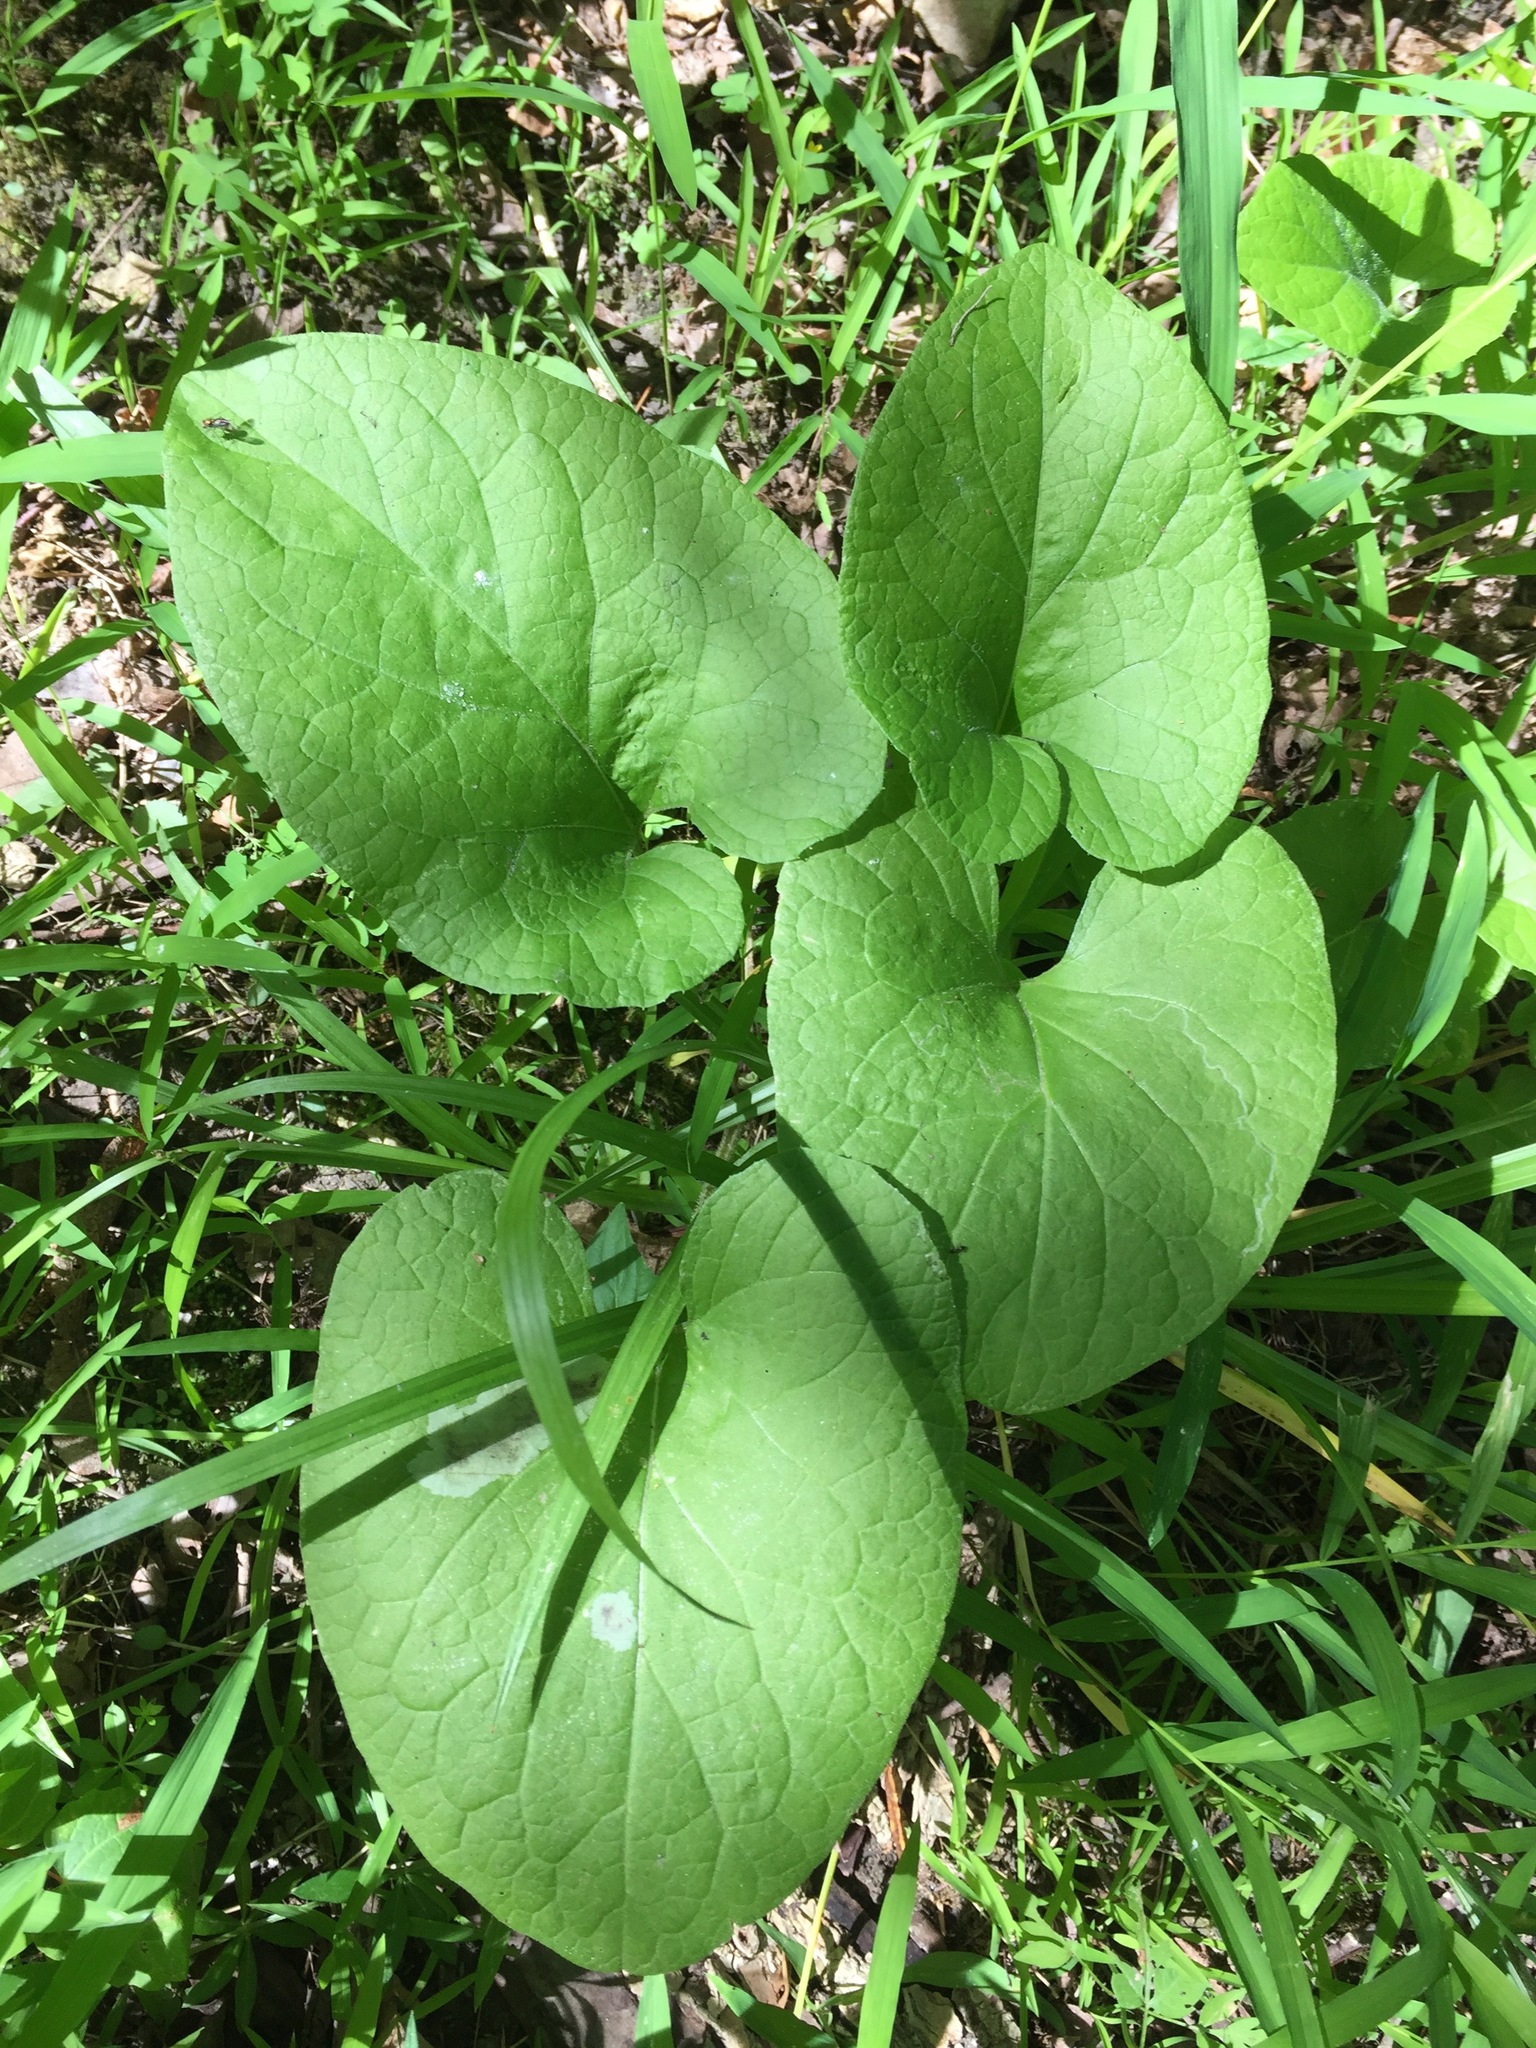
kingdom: Plantae
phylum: Tracheophyta
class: Magnoliopsida
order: Piperales
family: Aristolochiaceae
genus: Asarum
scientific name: Asarum canadense
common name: Wild ginger
